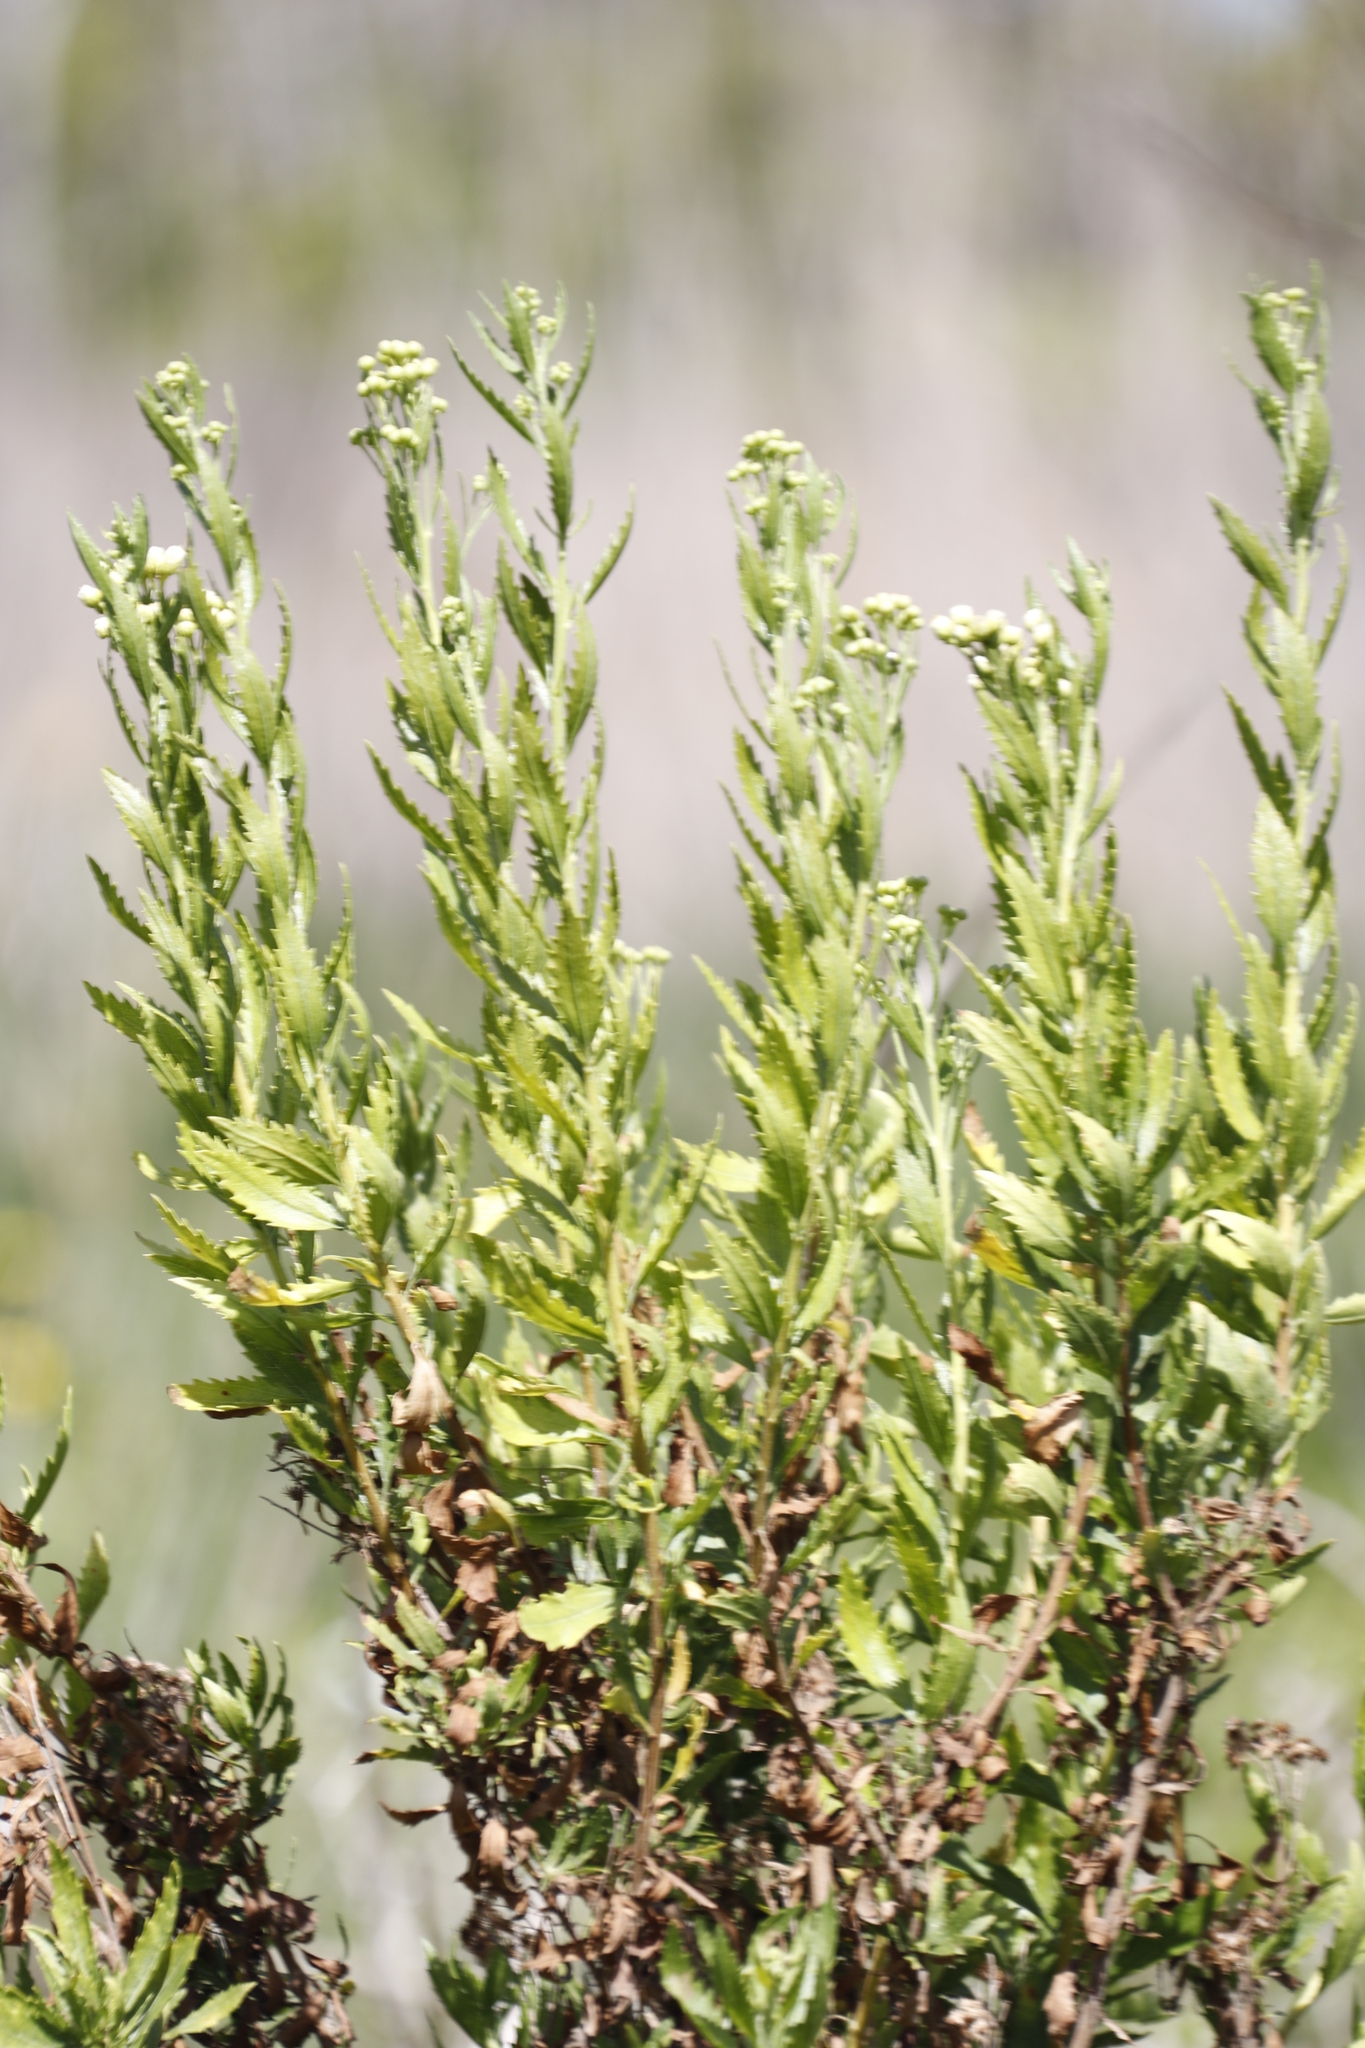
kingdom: Plantae
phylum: Tracheophyta
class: Magnoliopsida
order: Asterales
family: Asteraceae
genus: Nidorella
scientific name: Nidorella ivifolia
